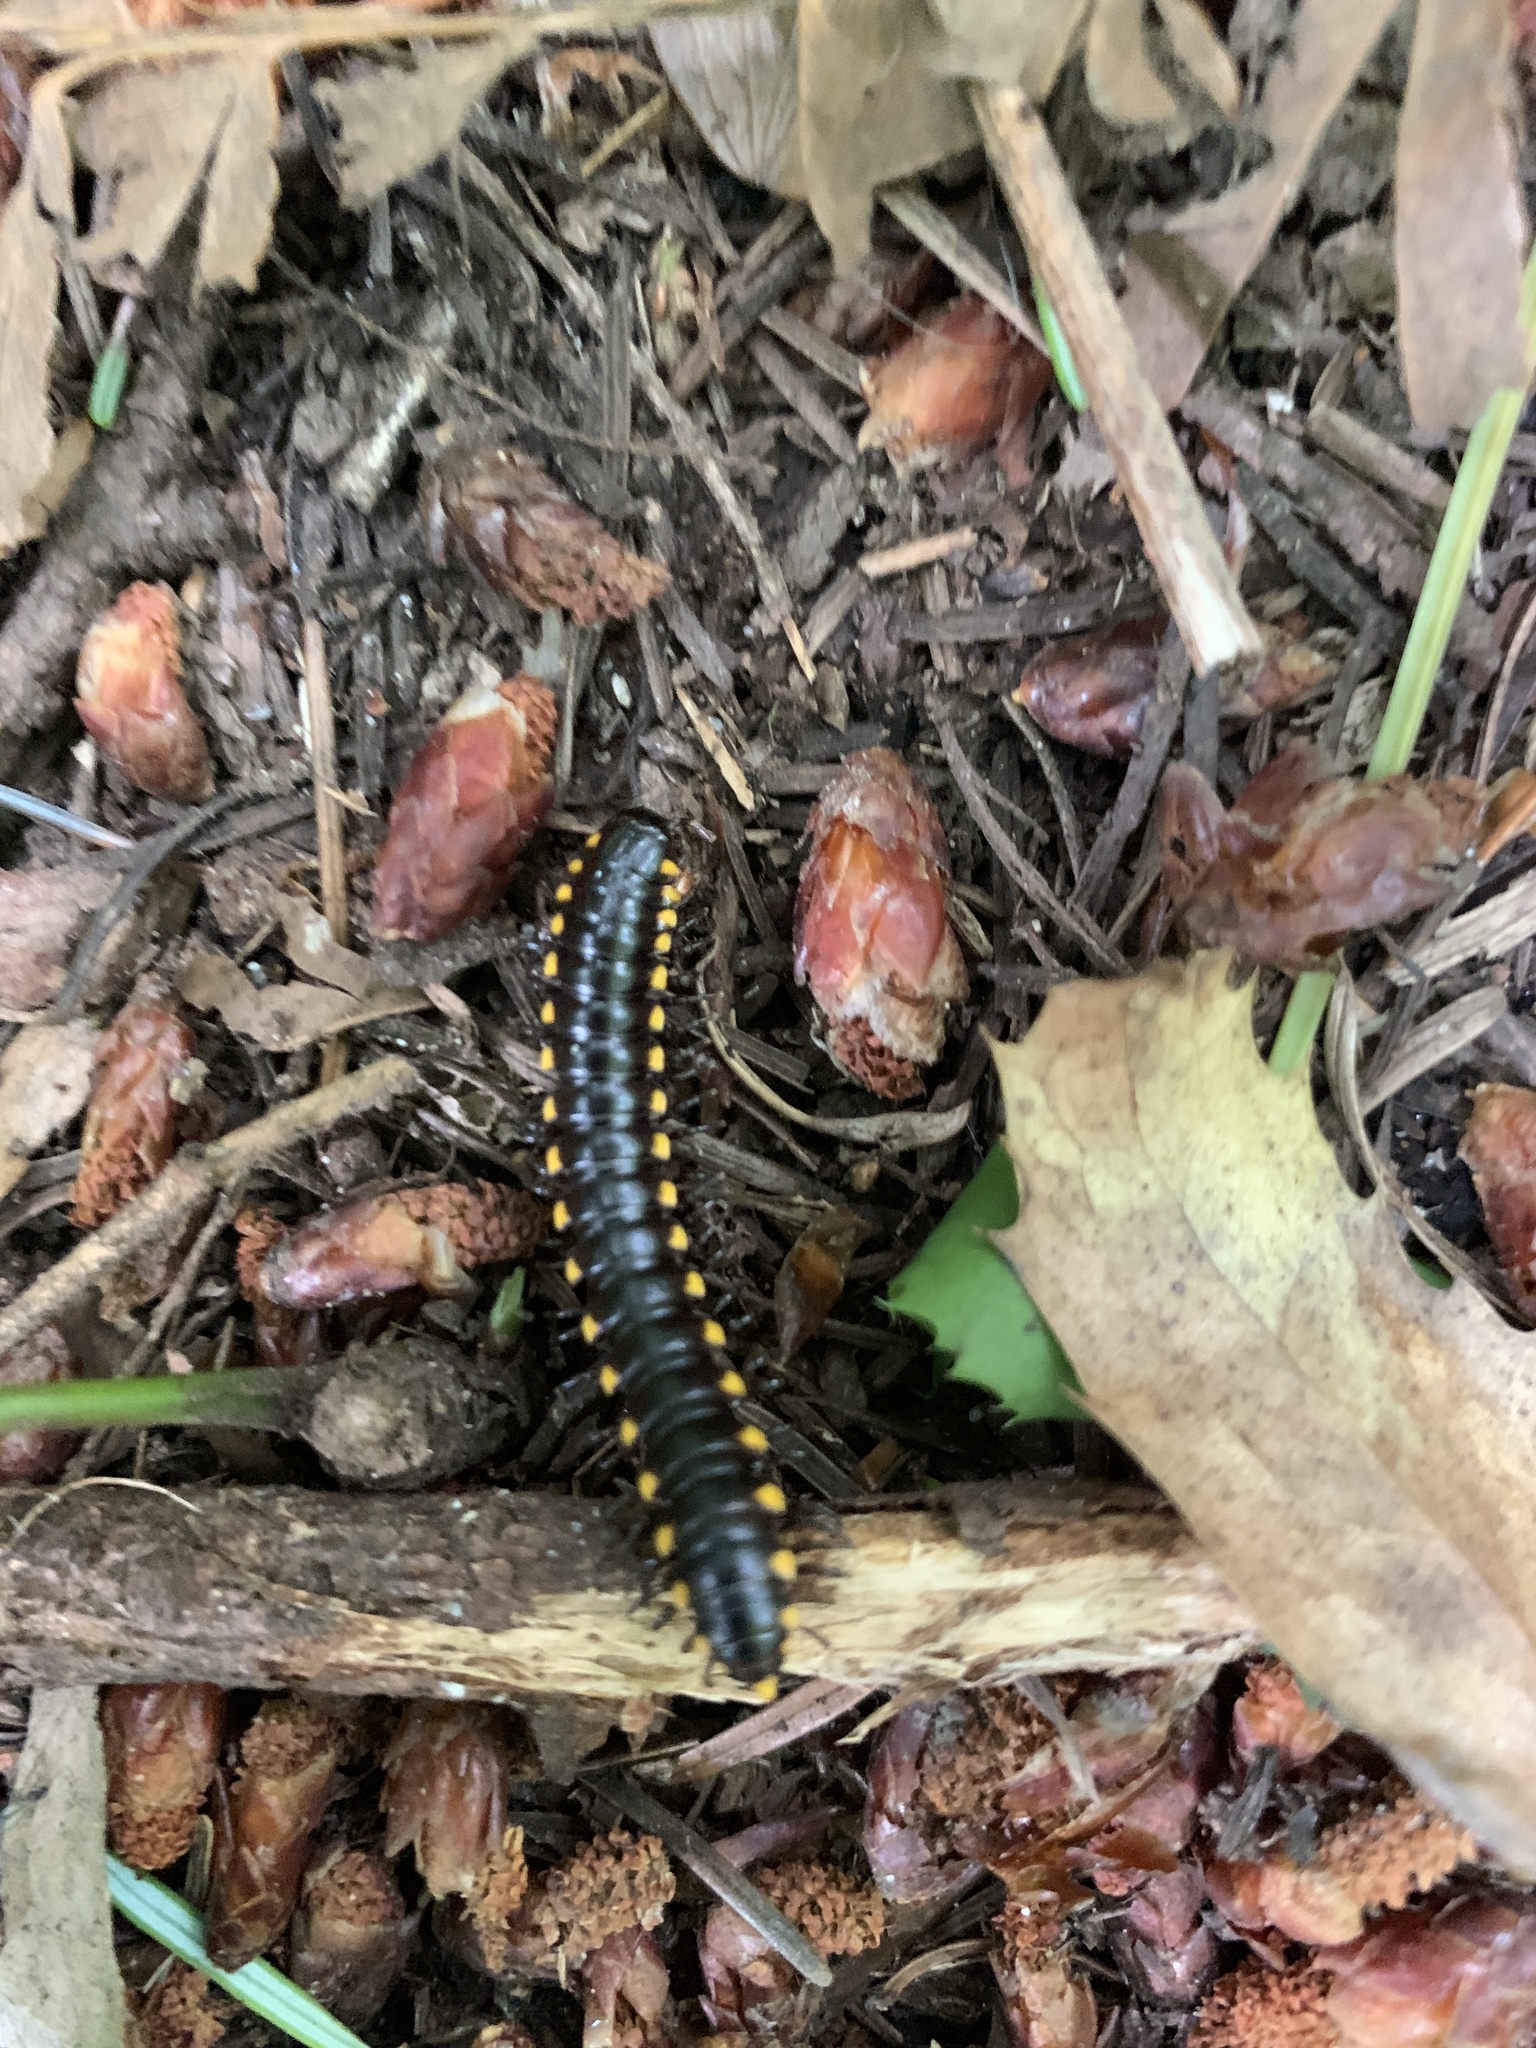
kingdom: Animalia
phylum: Arthropoda
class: Diplopoda
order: Polydesmida
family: Xystodesmidae
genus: Harpaphe
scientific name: Harpaphe haydeniana
